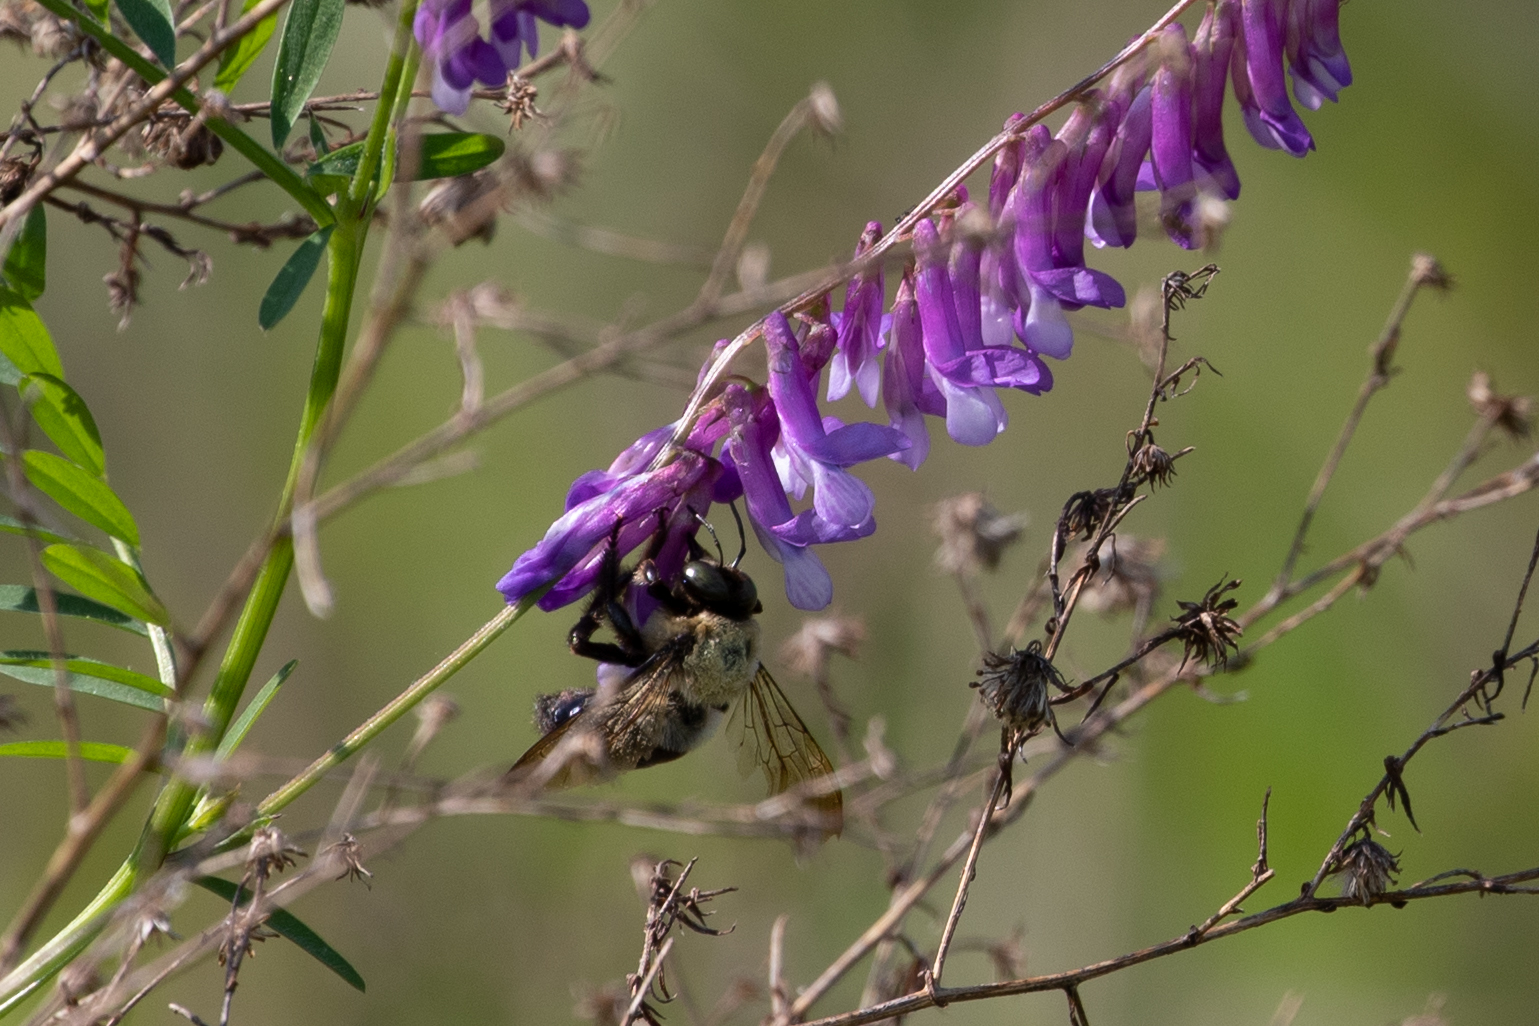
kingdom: Animalia
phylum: Arthropoda
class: Insecta
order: Hymenoptera
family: Apidae
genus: Xylocopa
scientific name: Xylocopa virginica
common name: Carpenter bee
